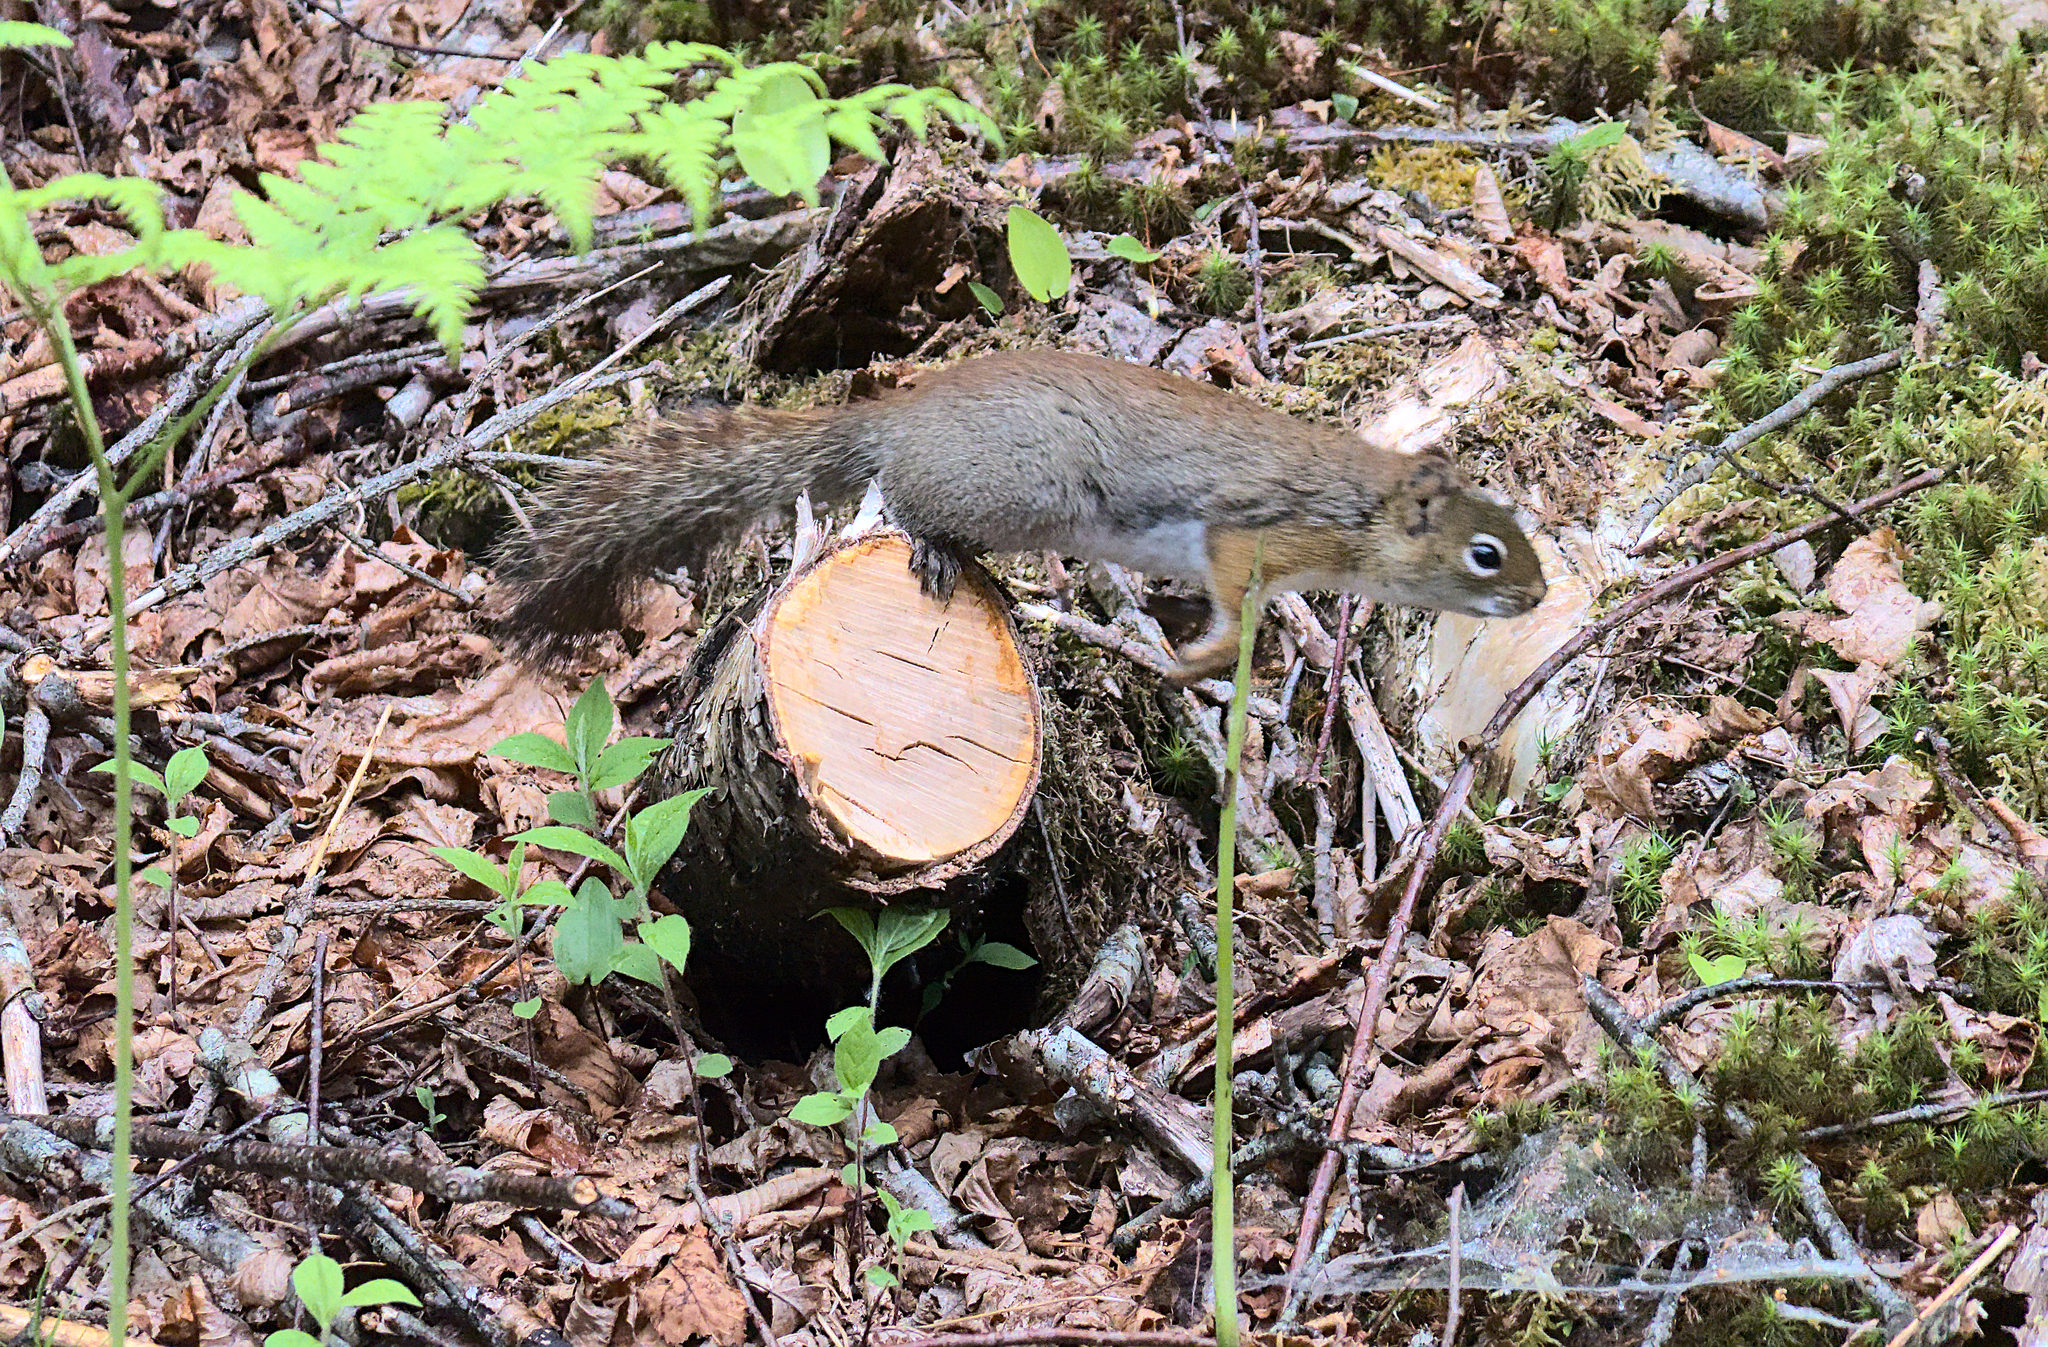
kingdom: Animalia
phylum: Chordata
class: Mammalia
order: Rodentia
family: Sciuridae
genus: Tamiasciurus
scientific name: Tamiasciurus hudsonicus
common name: Red squirrel
